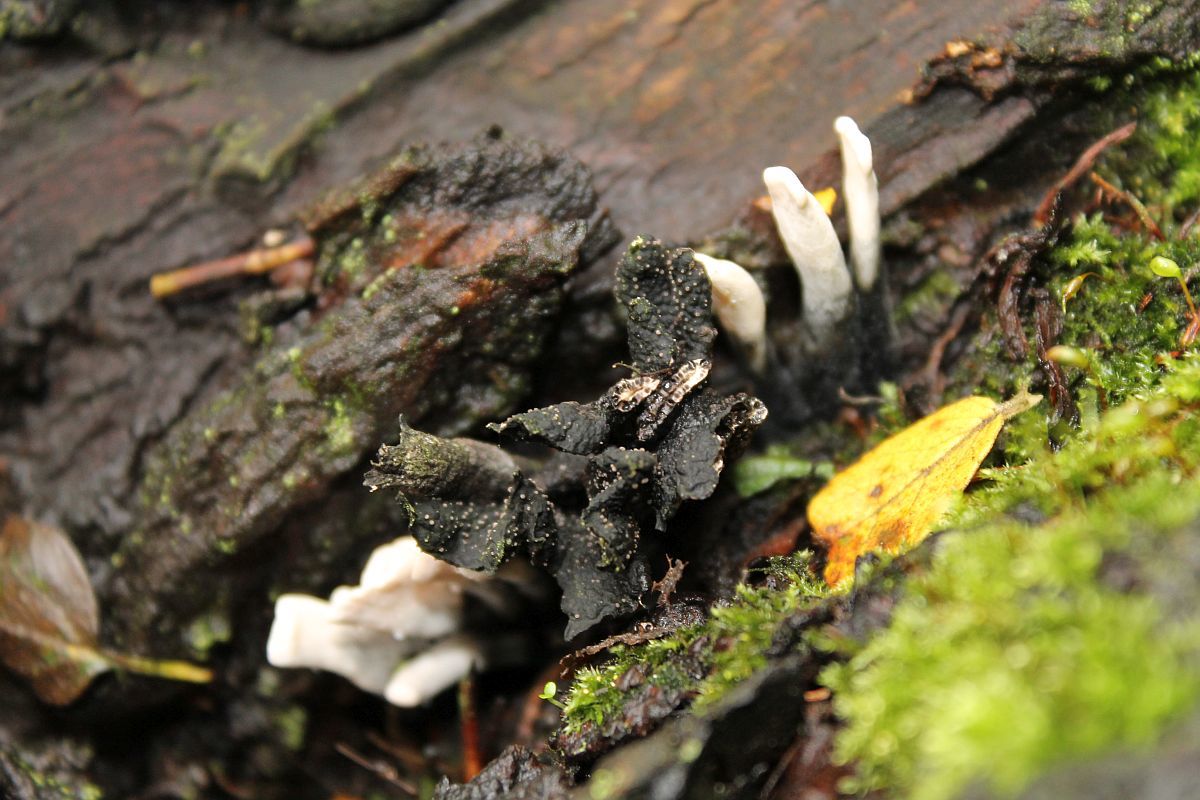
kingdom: Fungi
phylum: Ascomycota
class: Sordariomycetes
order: Xylariales
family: Xylariaceae
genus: Xylaria
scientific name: Xylaria hypoxylon
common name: Candle-snuff fungus
